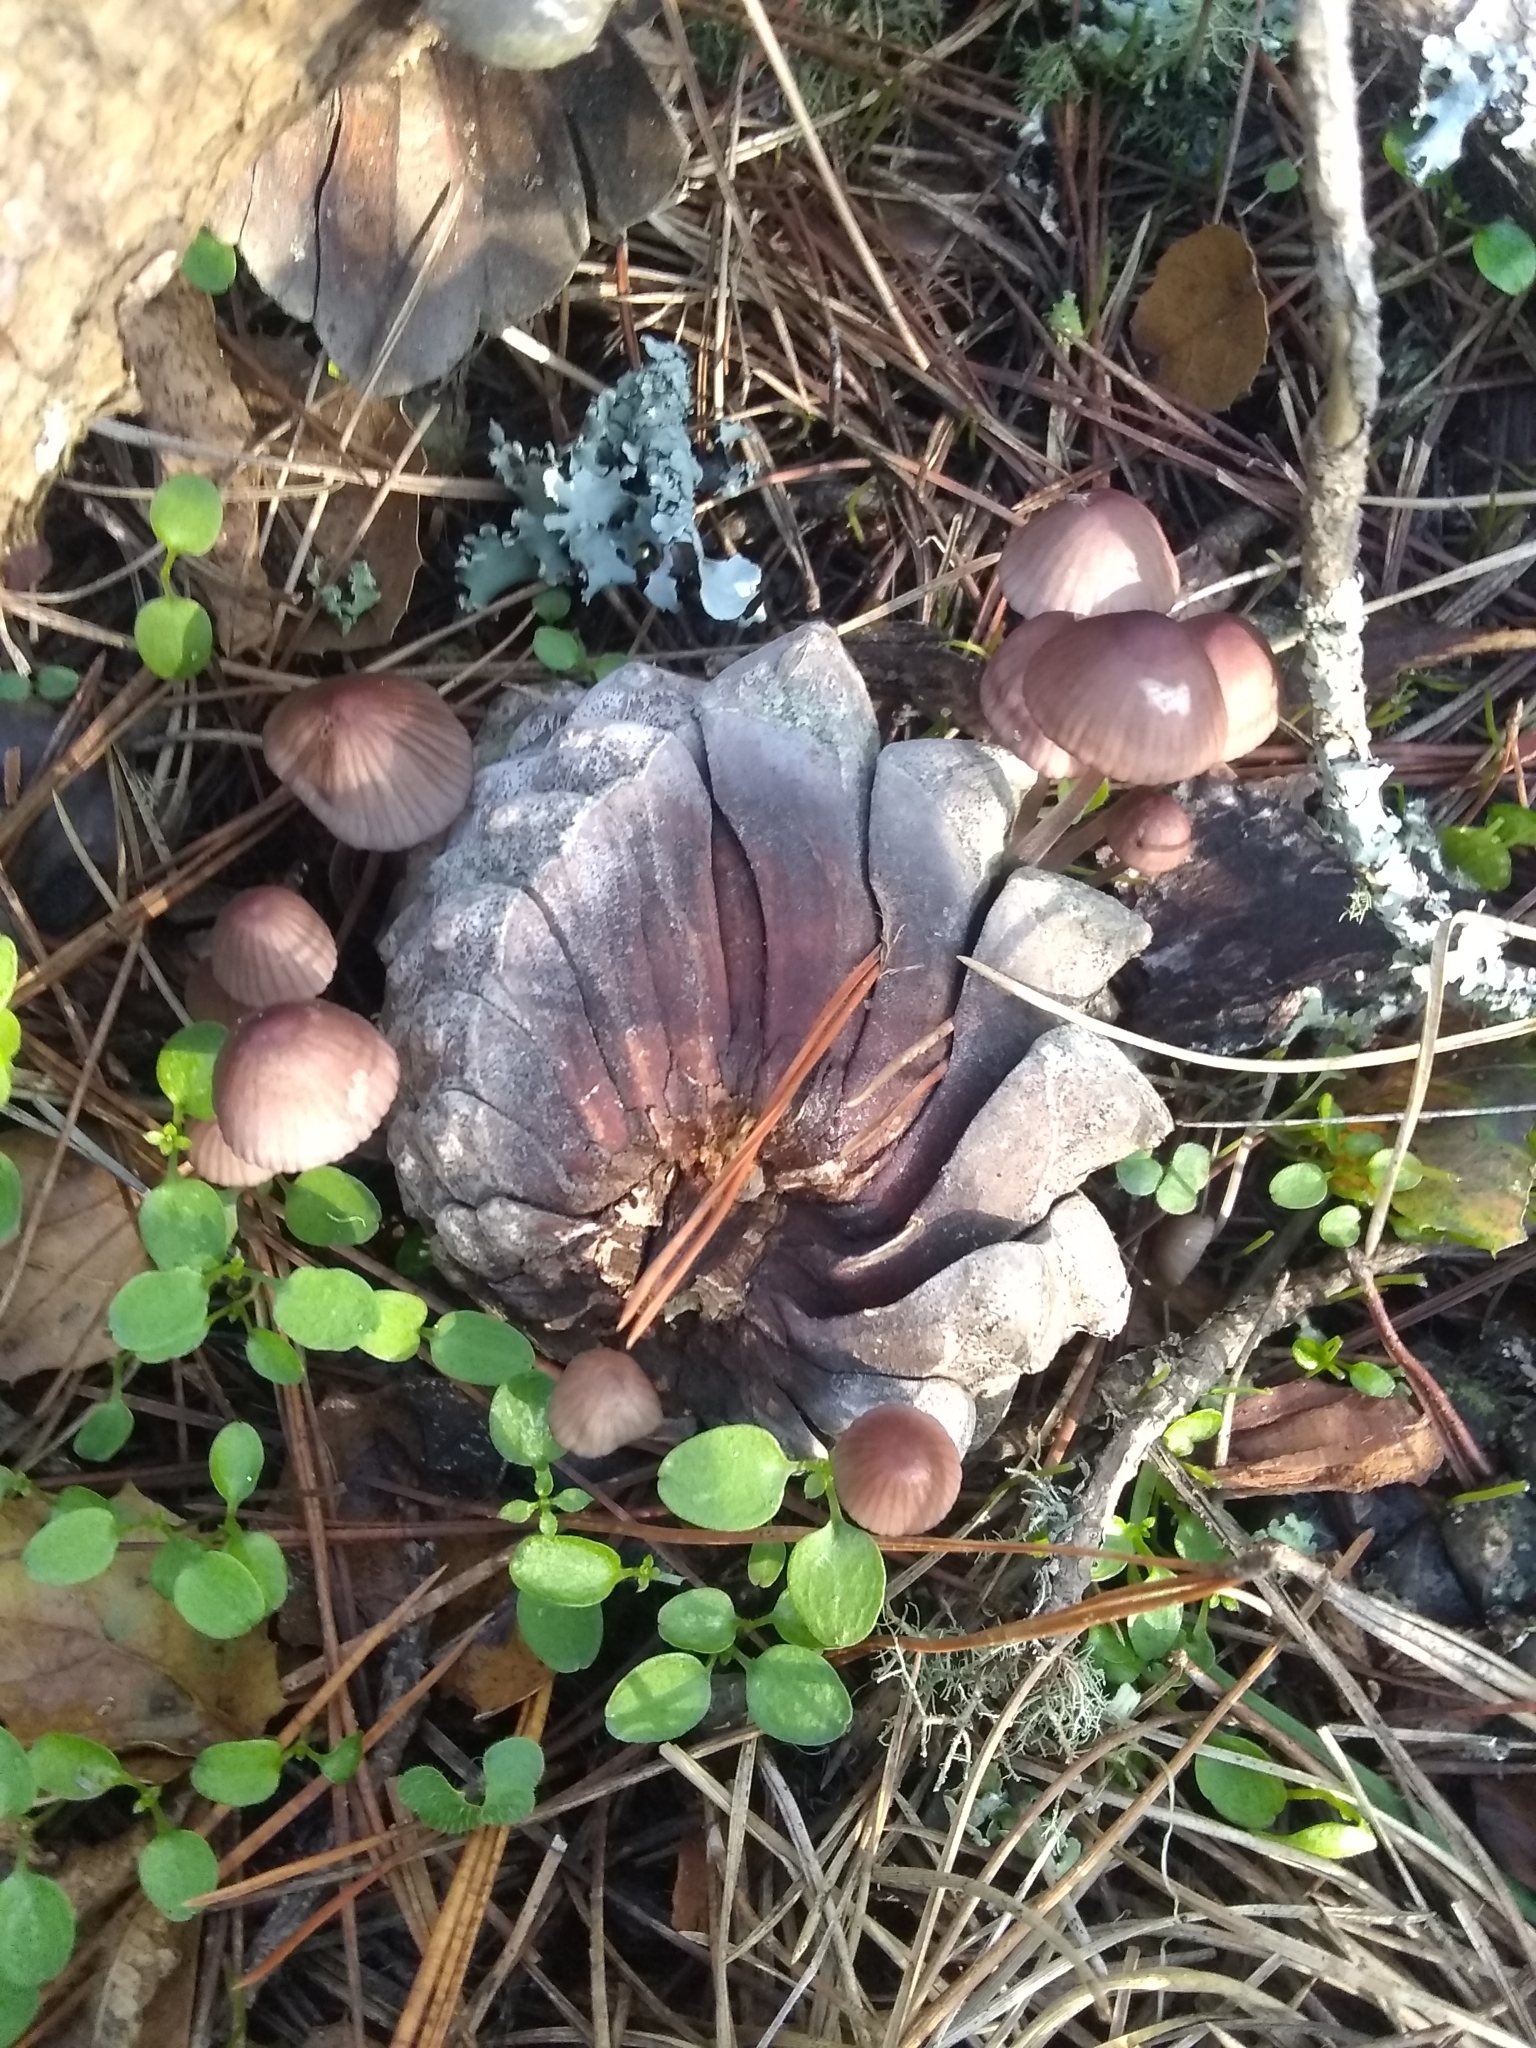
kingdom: Fungi
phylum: Basidiomycota
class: Agaricomycetes
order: Agaricales
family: Mycenaceae
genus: Mycena
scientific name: Mycena purpureofusca
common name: Purple edge bonnet
